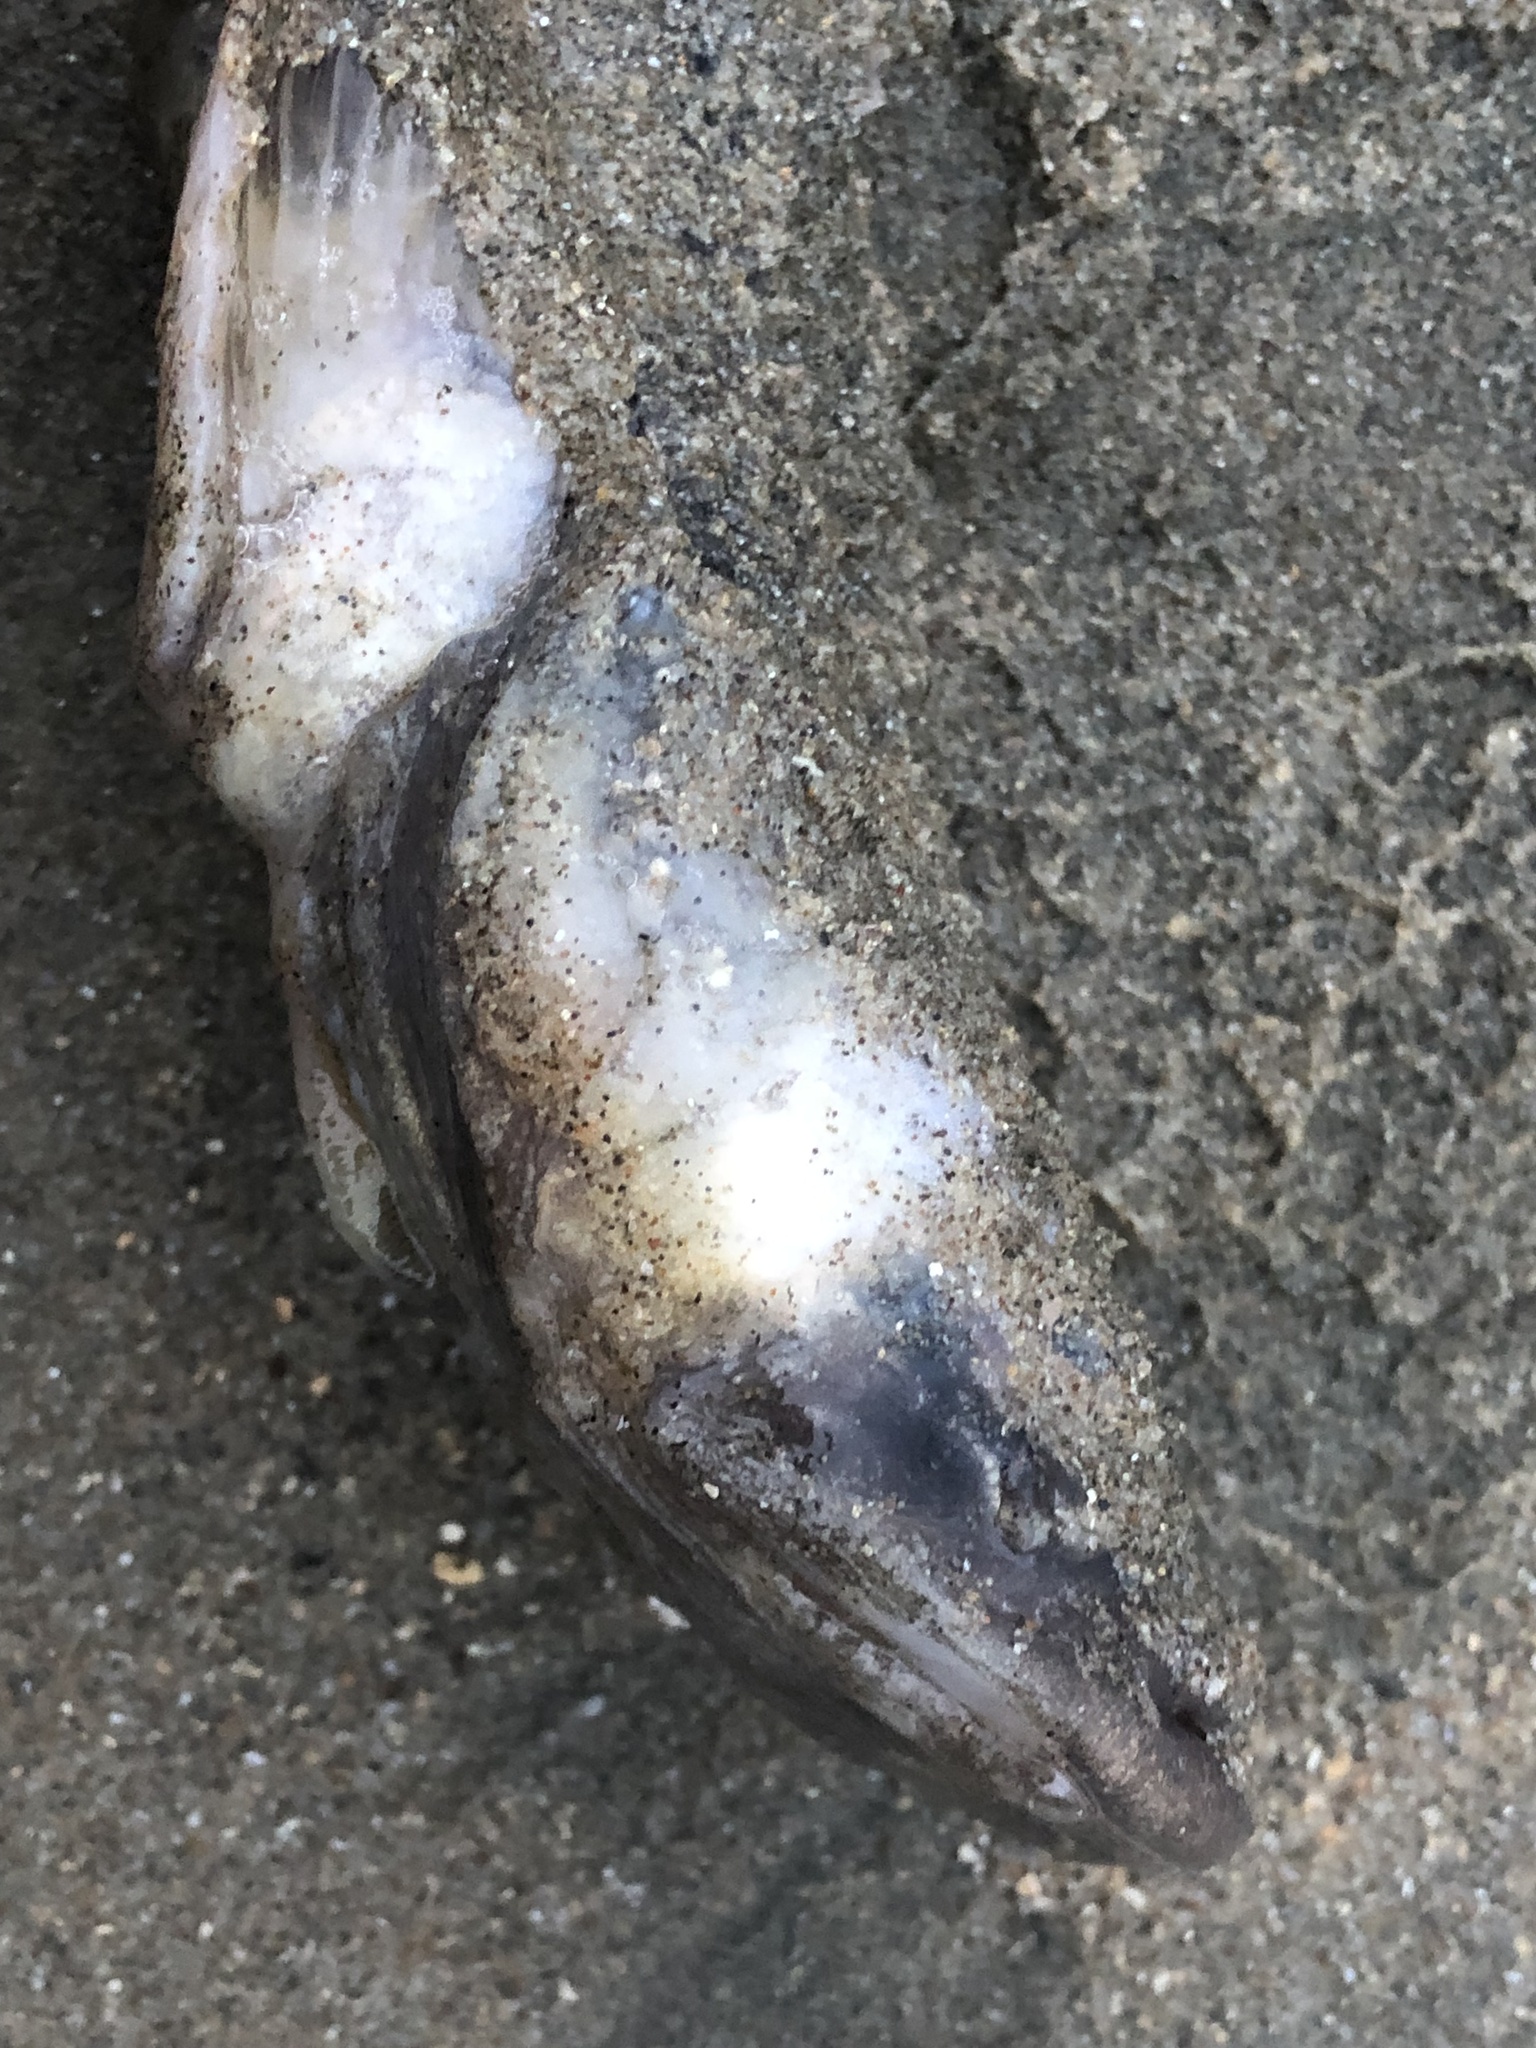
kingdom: Animalia
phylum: Chordata
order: Batrachoidiformes
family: Batrachoididae
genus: Porichthys
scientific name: Porichthys notatus
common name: Plainfin midshipman
